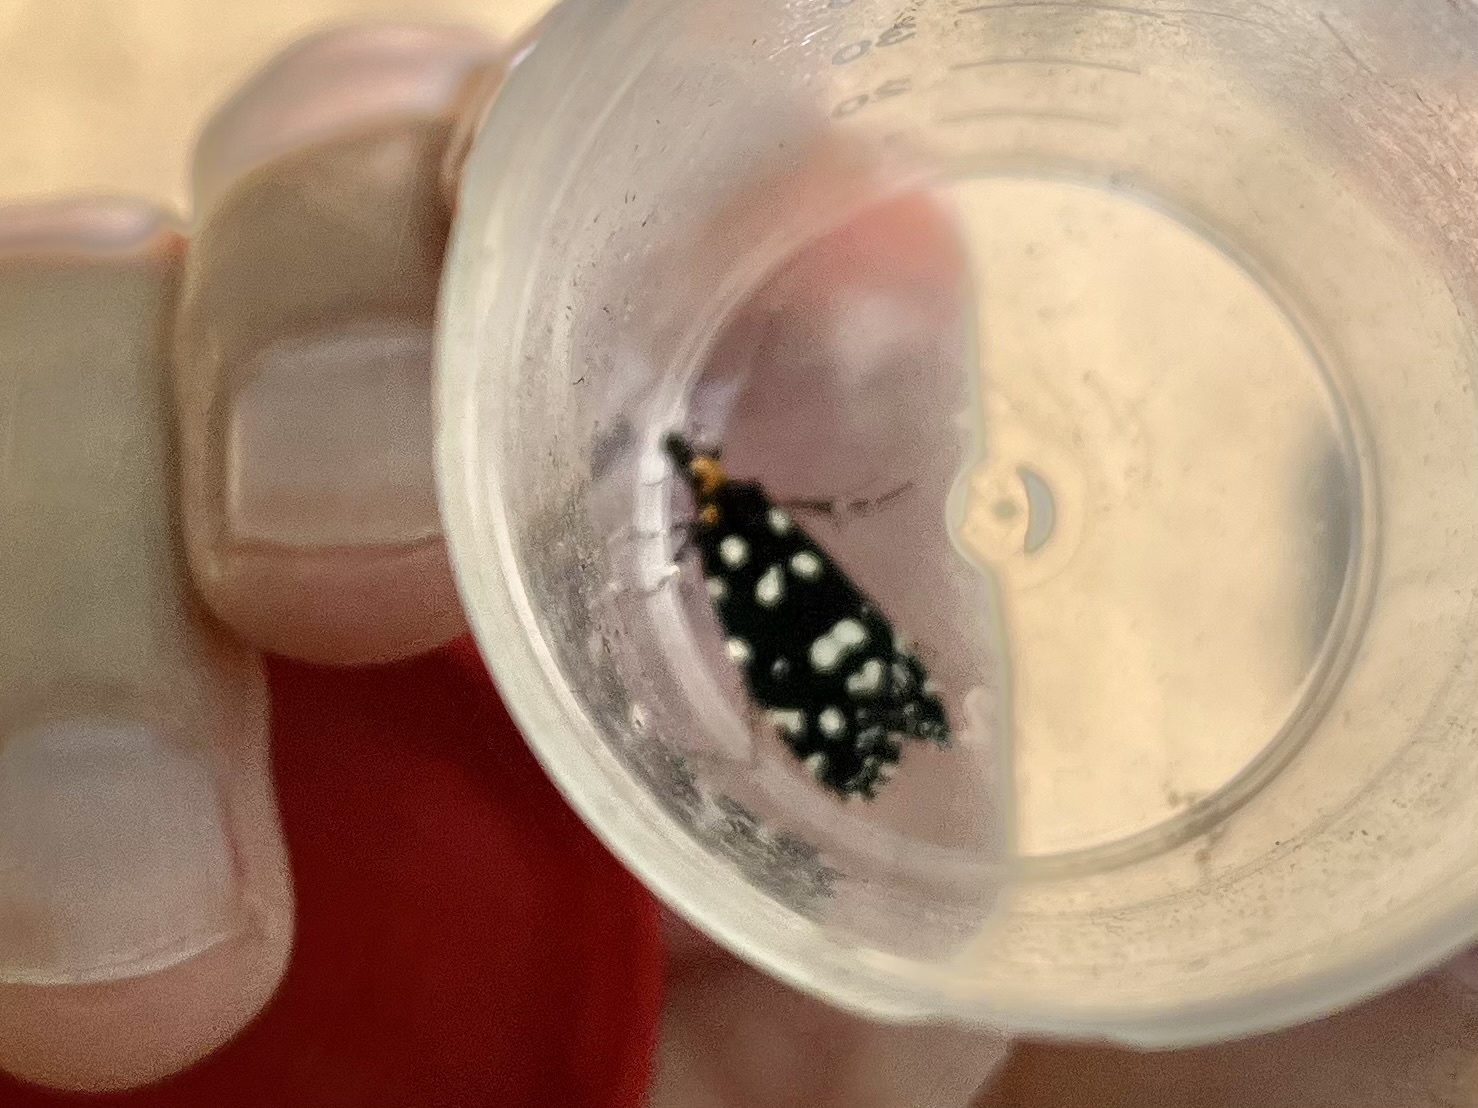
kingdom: Animalia
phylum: Arthropoda
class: Insecta
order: Lepidoptera
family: Tineidae
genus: Euplocamus
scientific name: Euplocamus anthracinalis
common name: Black clothes
